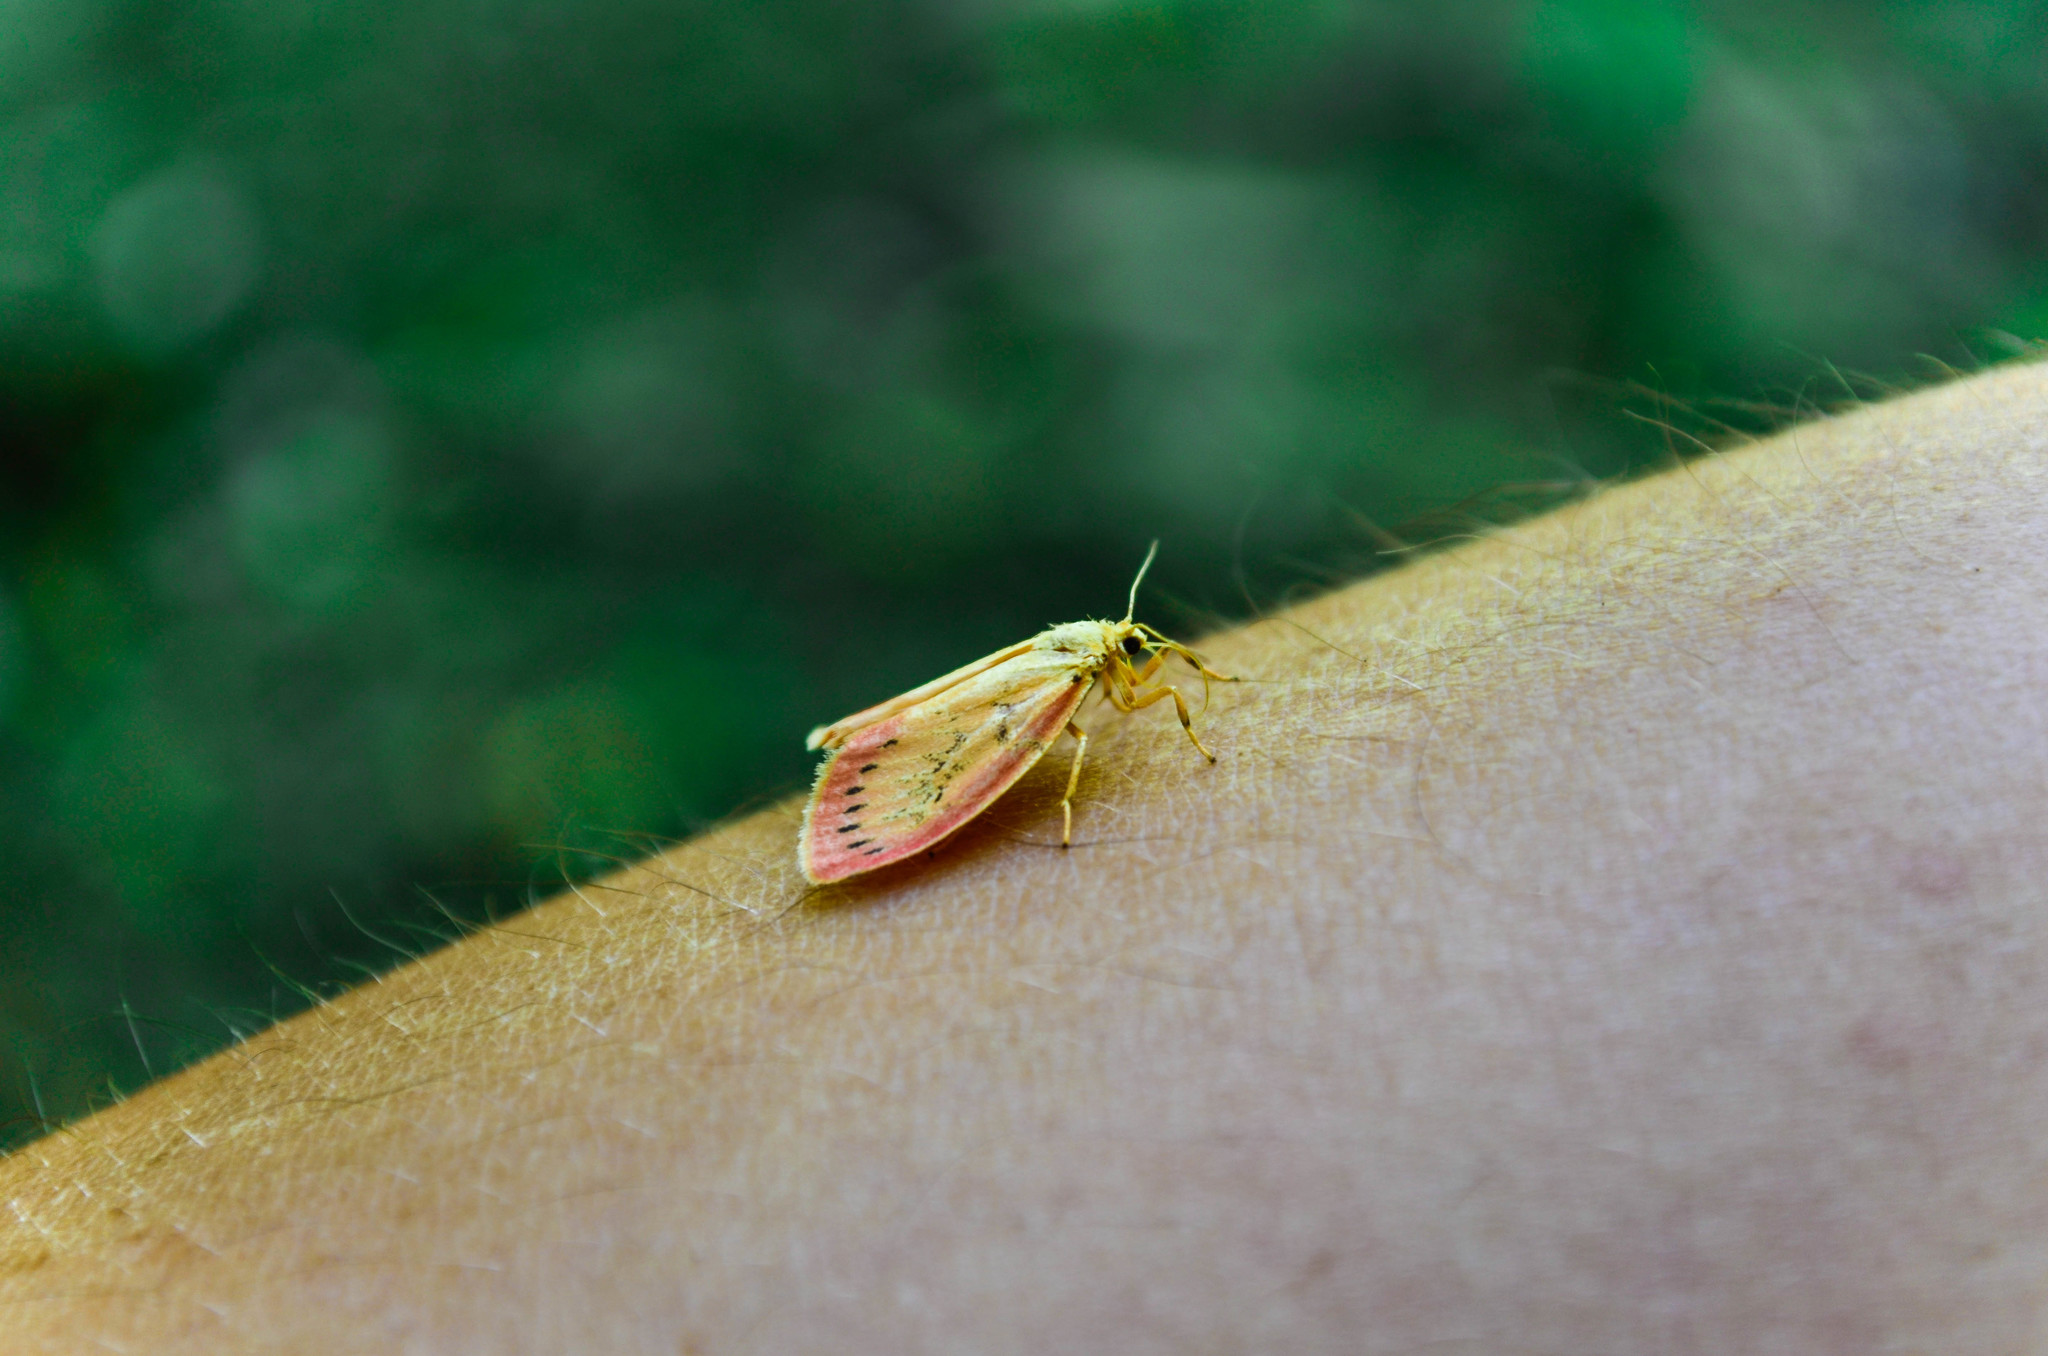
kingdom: Animalia
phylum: Arthropoda
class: Insecta
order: Lepidoptera
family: Erebidae
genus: Miltochrista
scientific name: Miltochrista miniata
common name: Rosy footman
